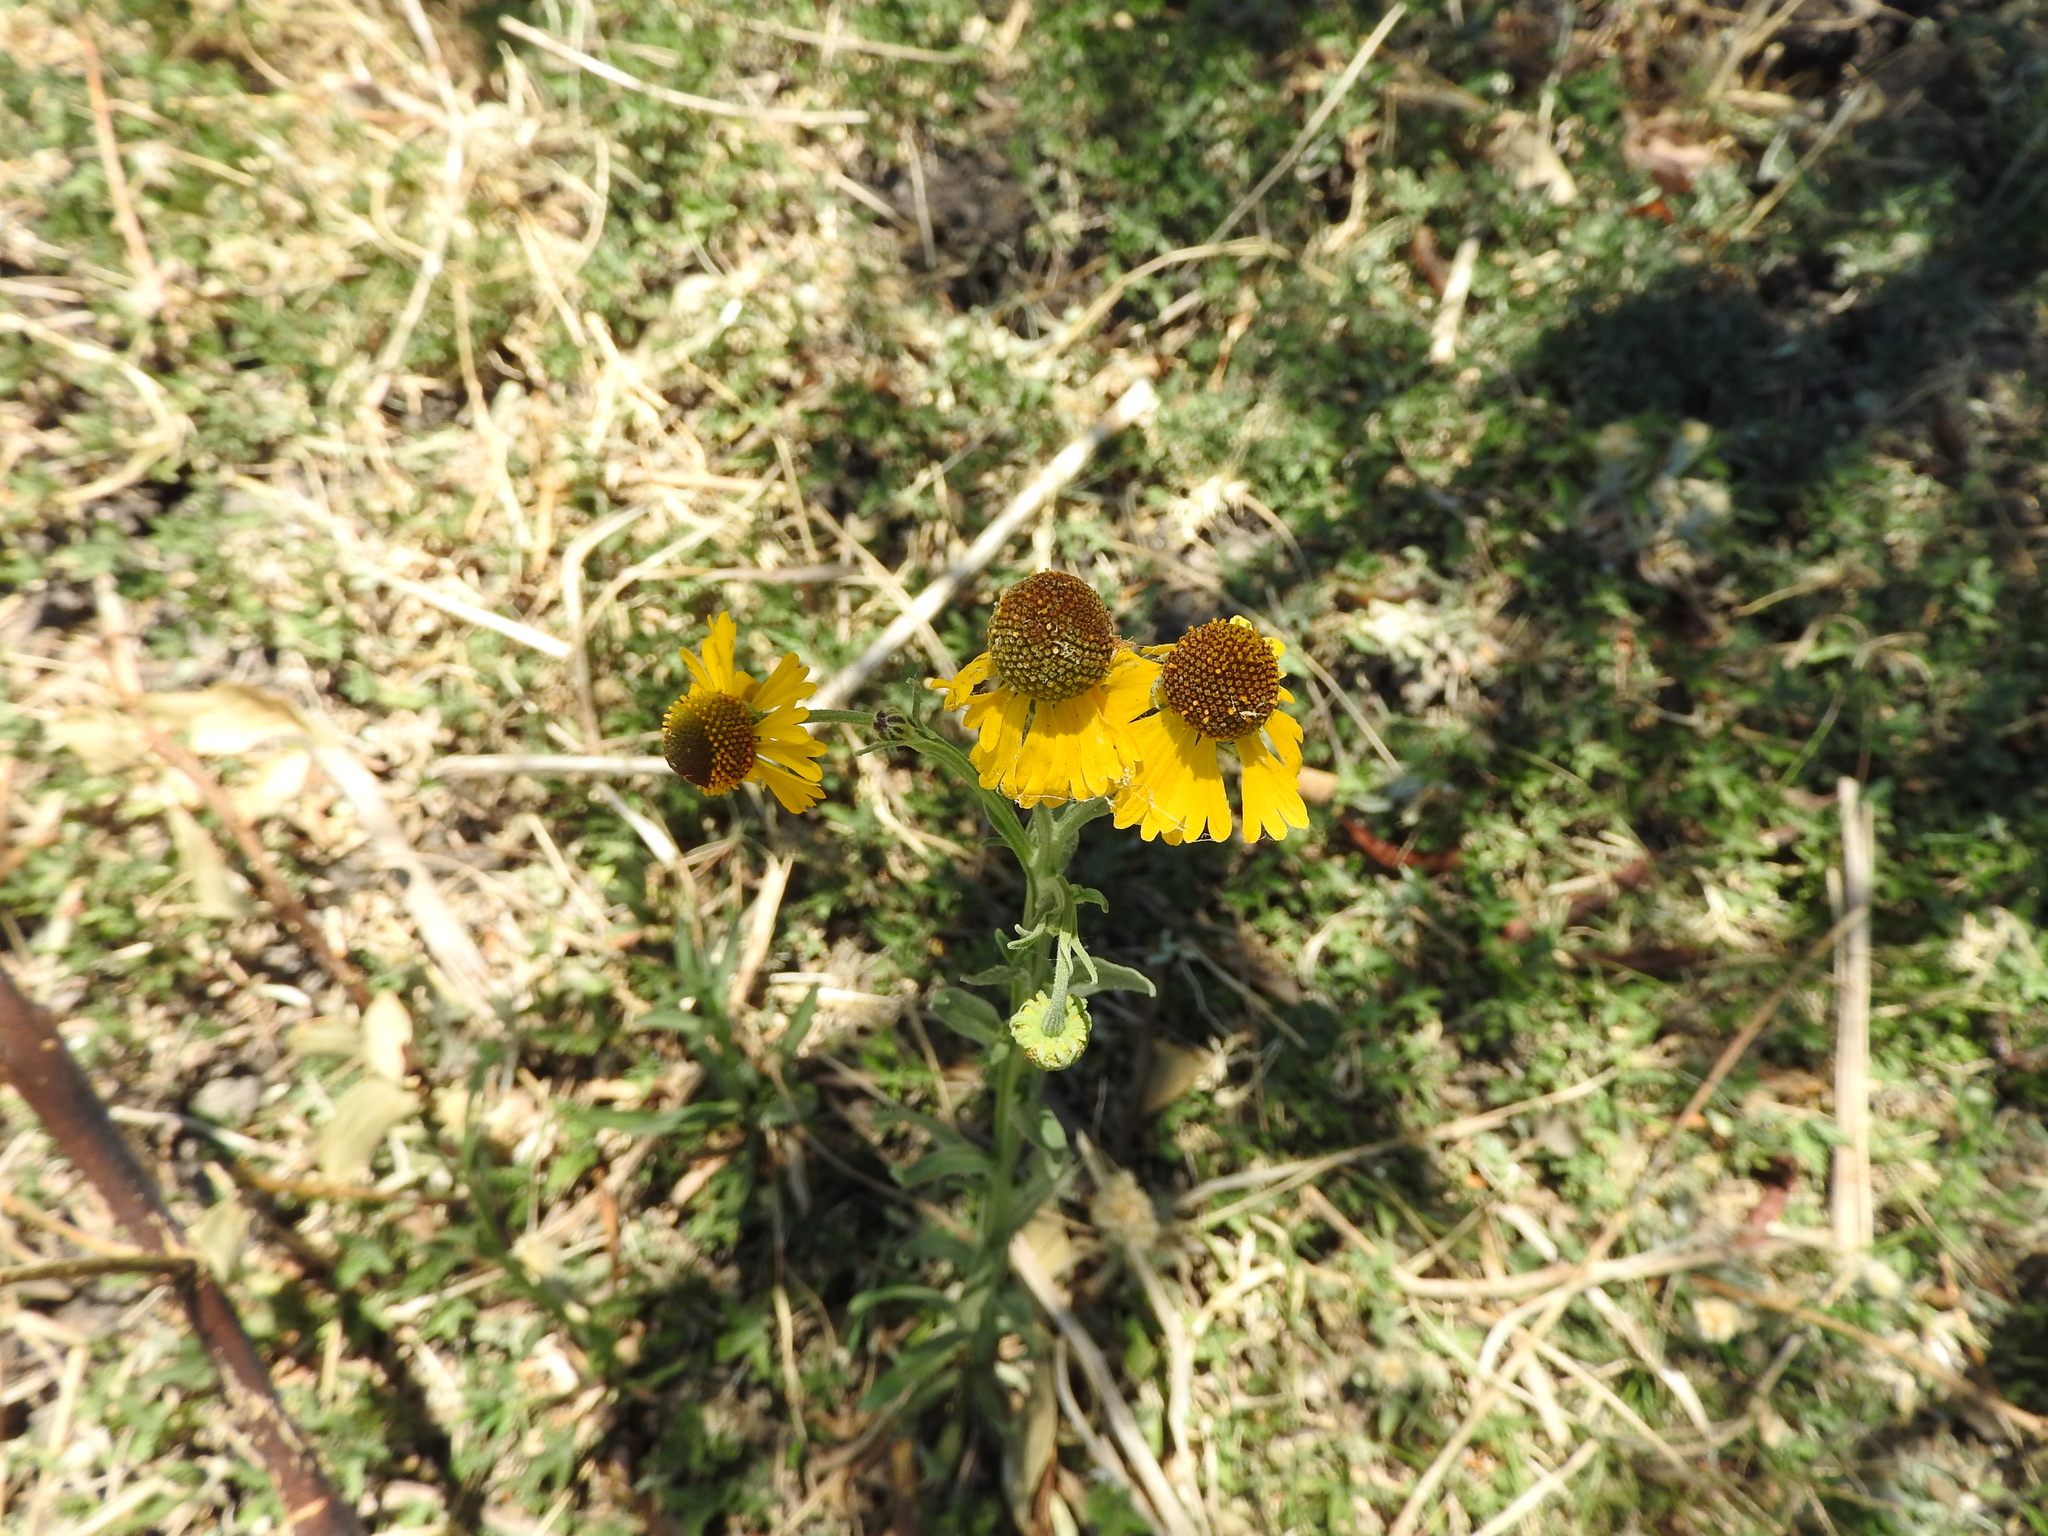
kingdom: Plantae
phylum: Tracheophyta
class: Magnoliopsida
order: Asterales
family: Asteraceae
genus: Helenium
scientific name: Helenium mexicanum
